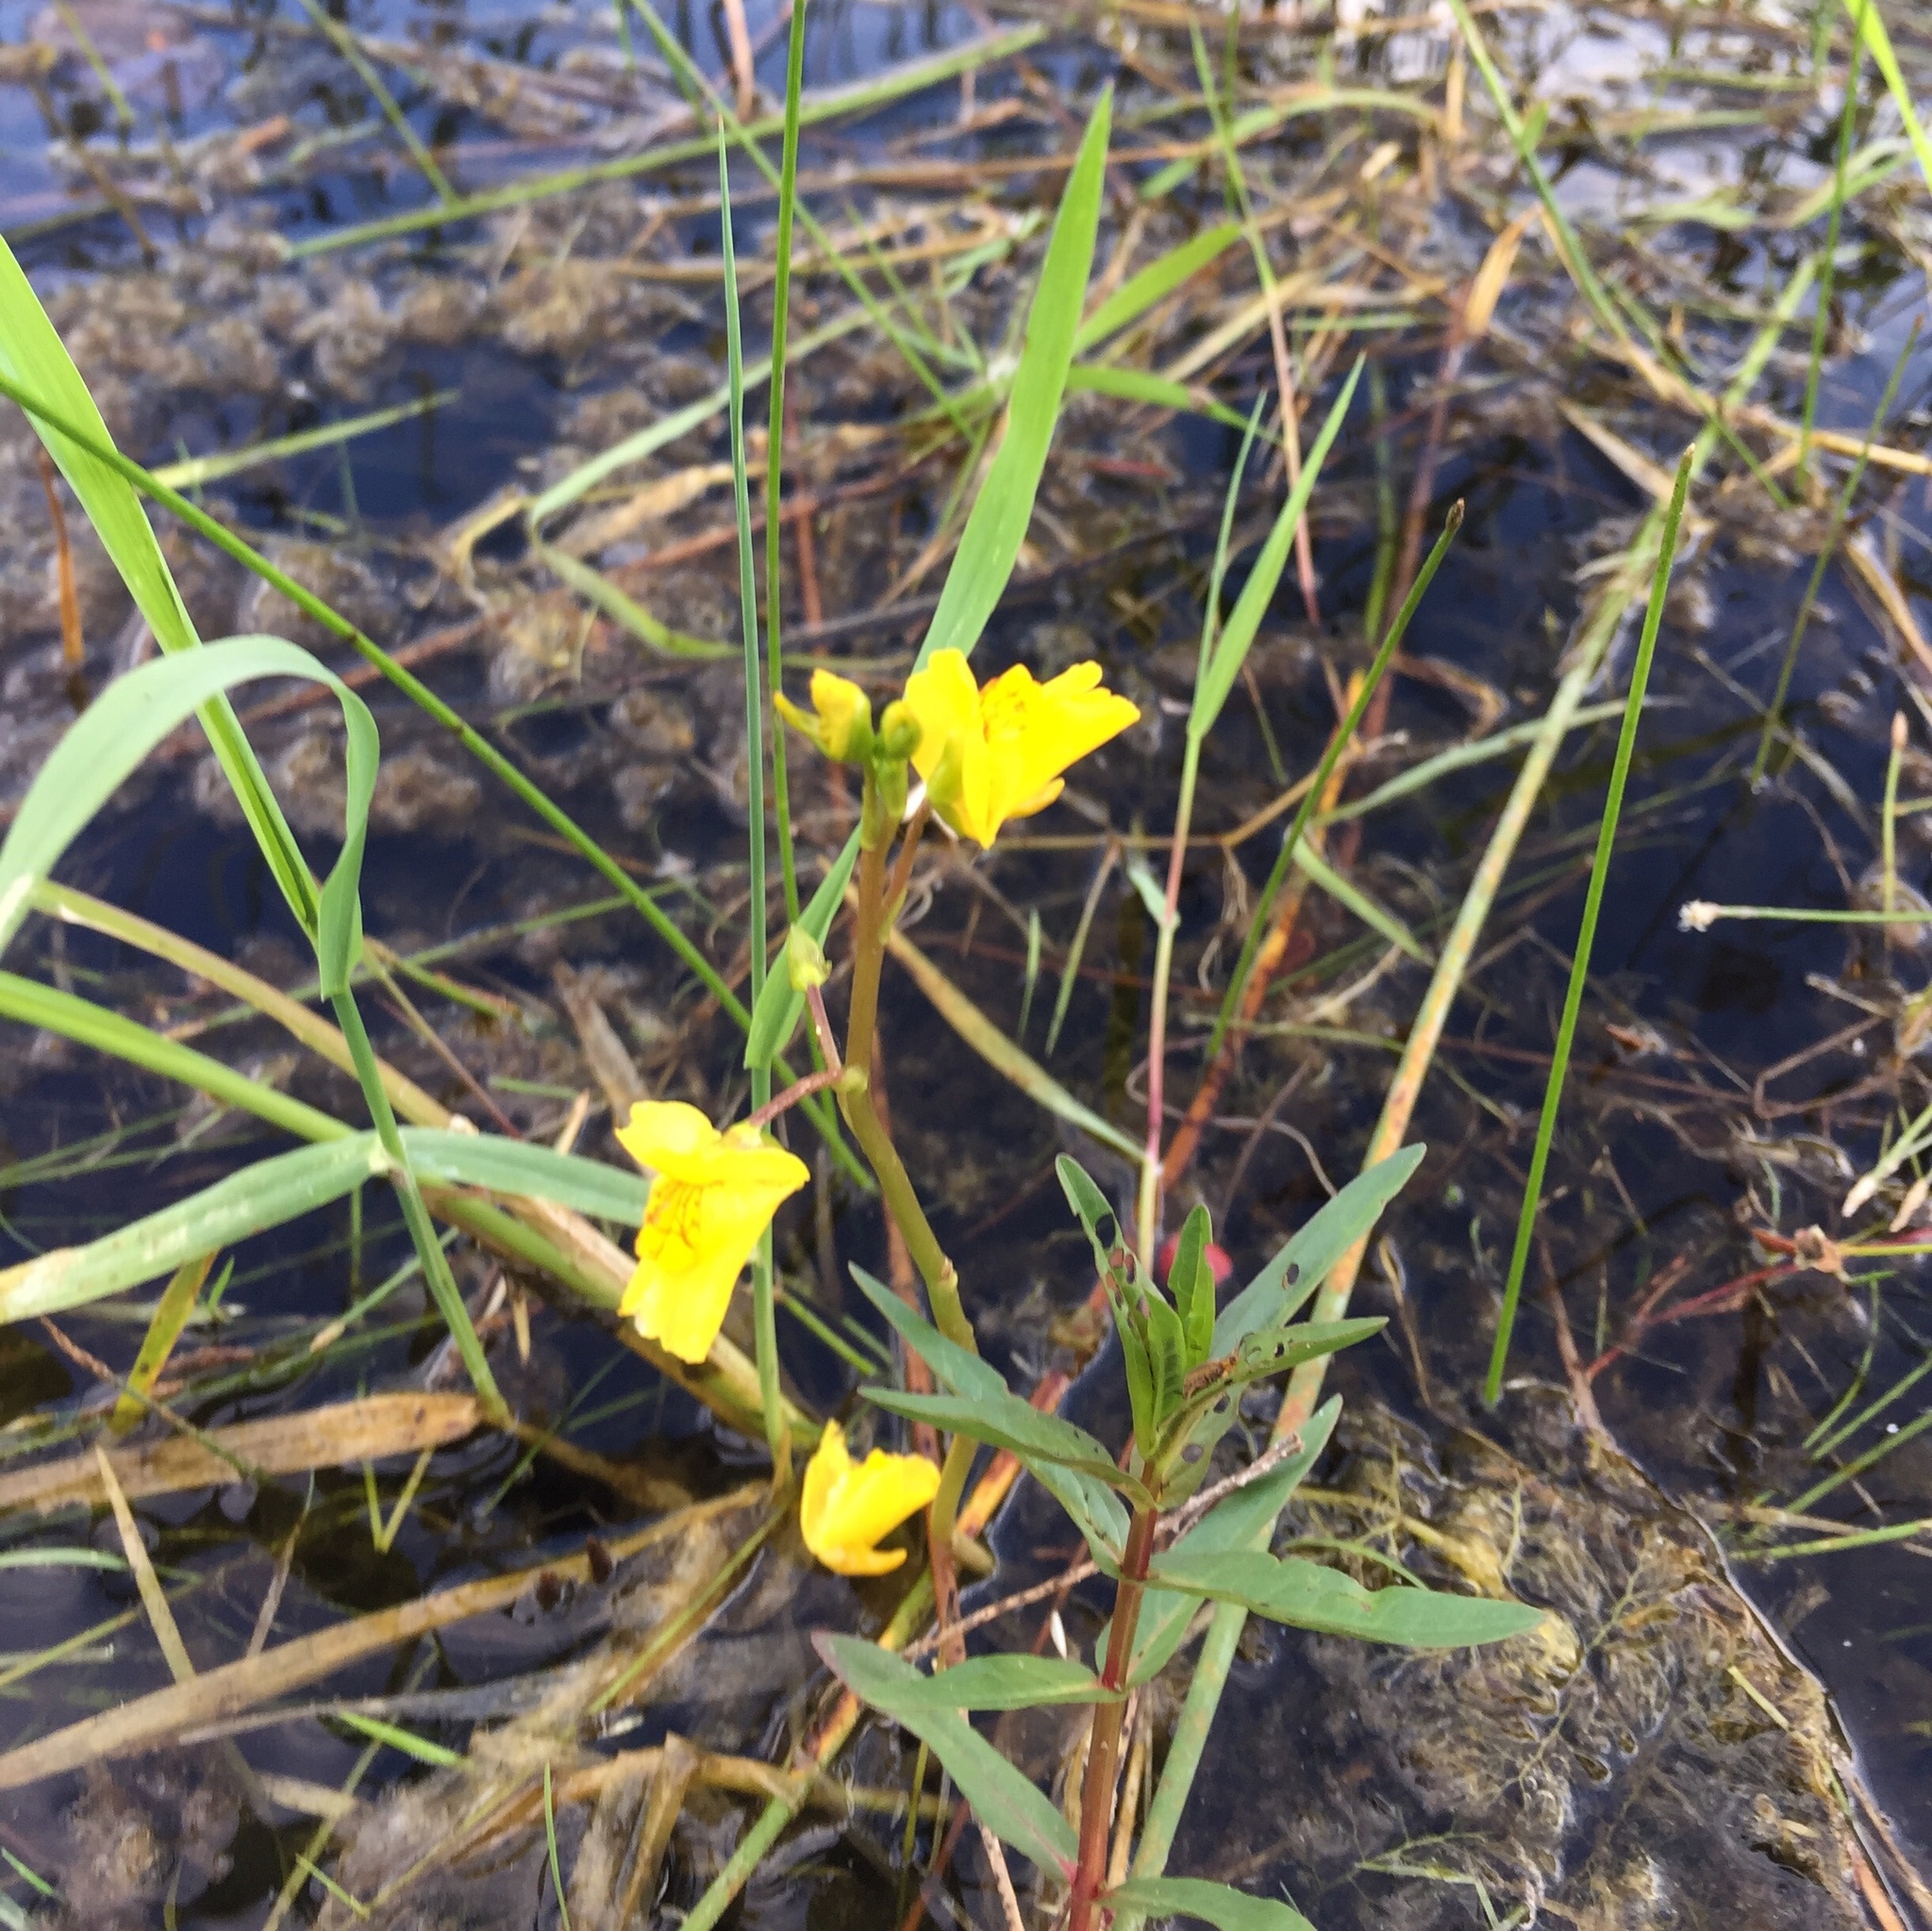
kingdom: Plantae
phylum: Tracheophyta
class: Magnoliopsida
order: Lamiales
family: Lentibulariaceae
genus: Utricularia
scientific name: Utricularia macrorhiza
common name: Common bladderwort
